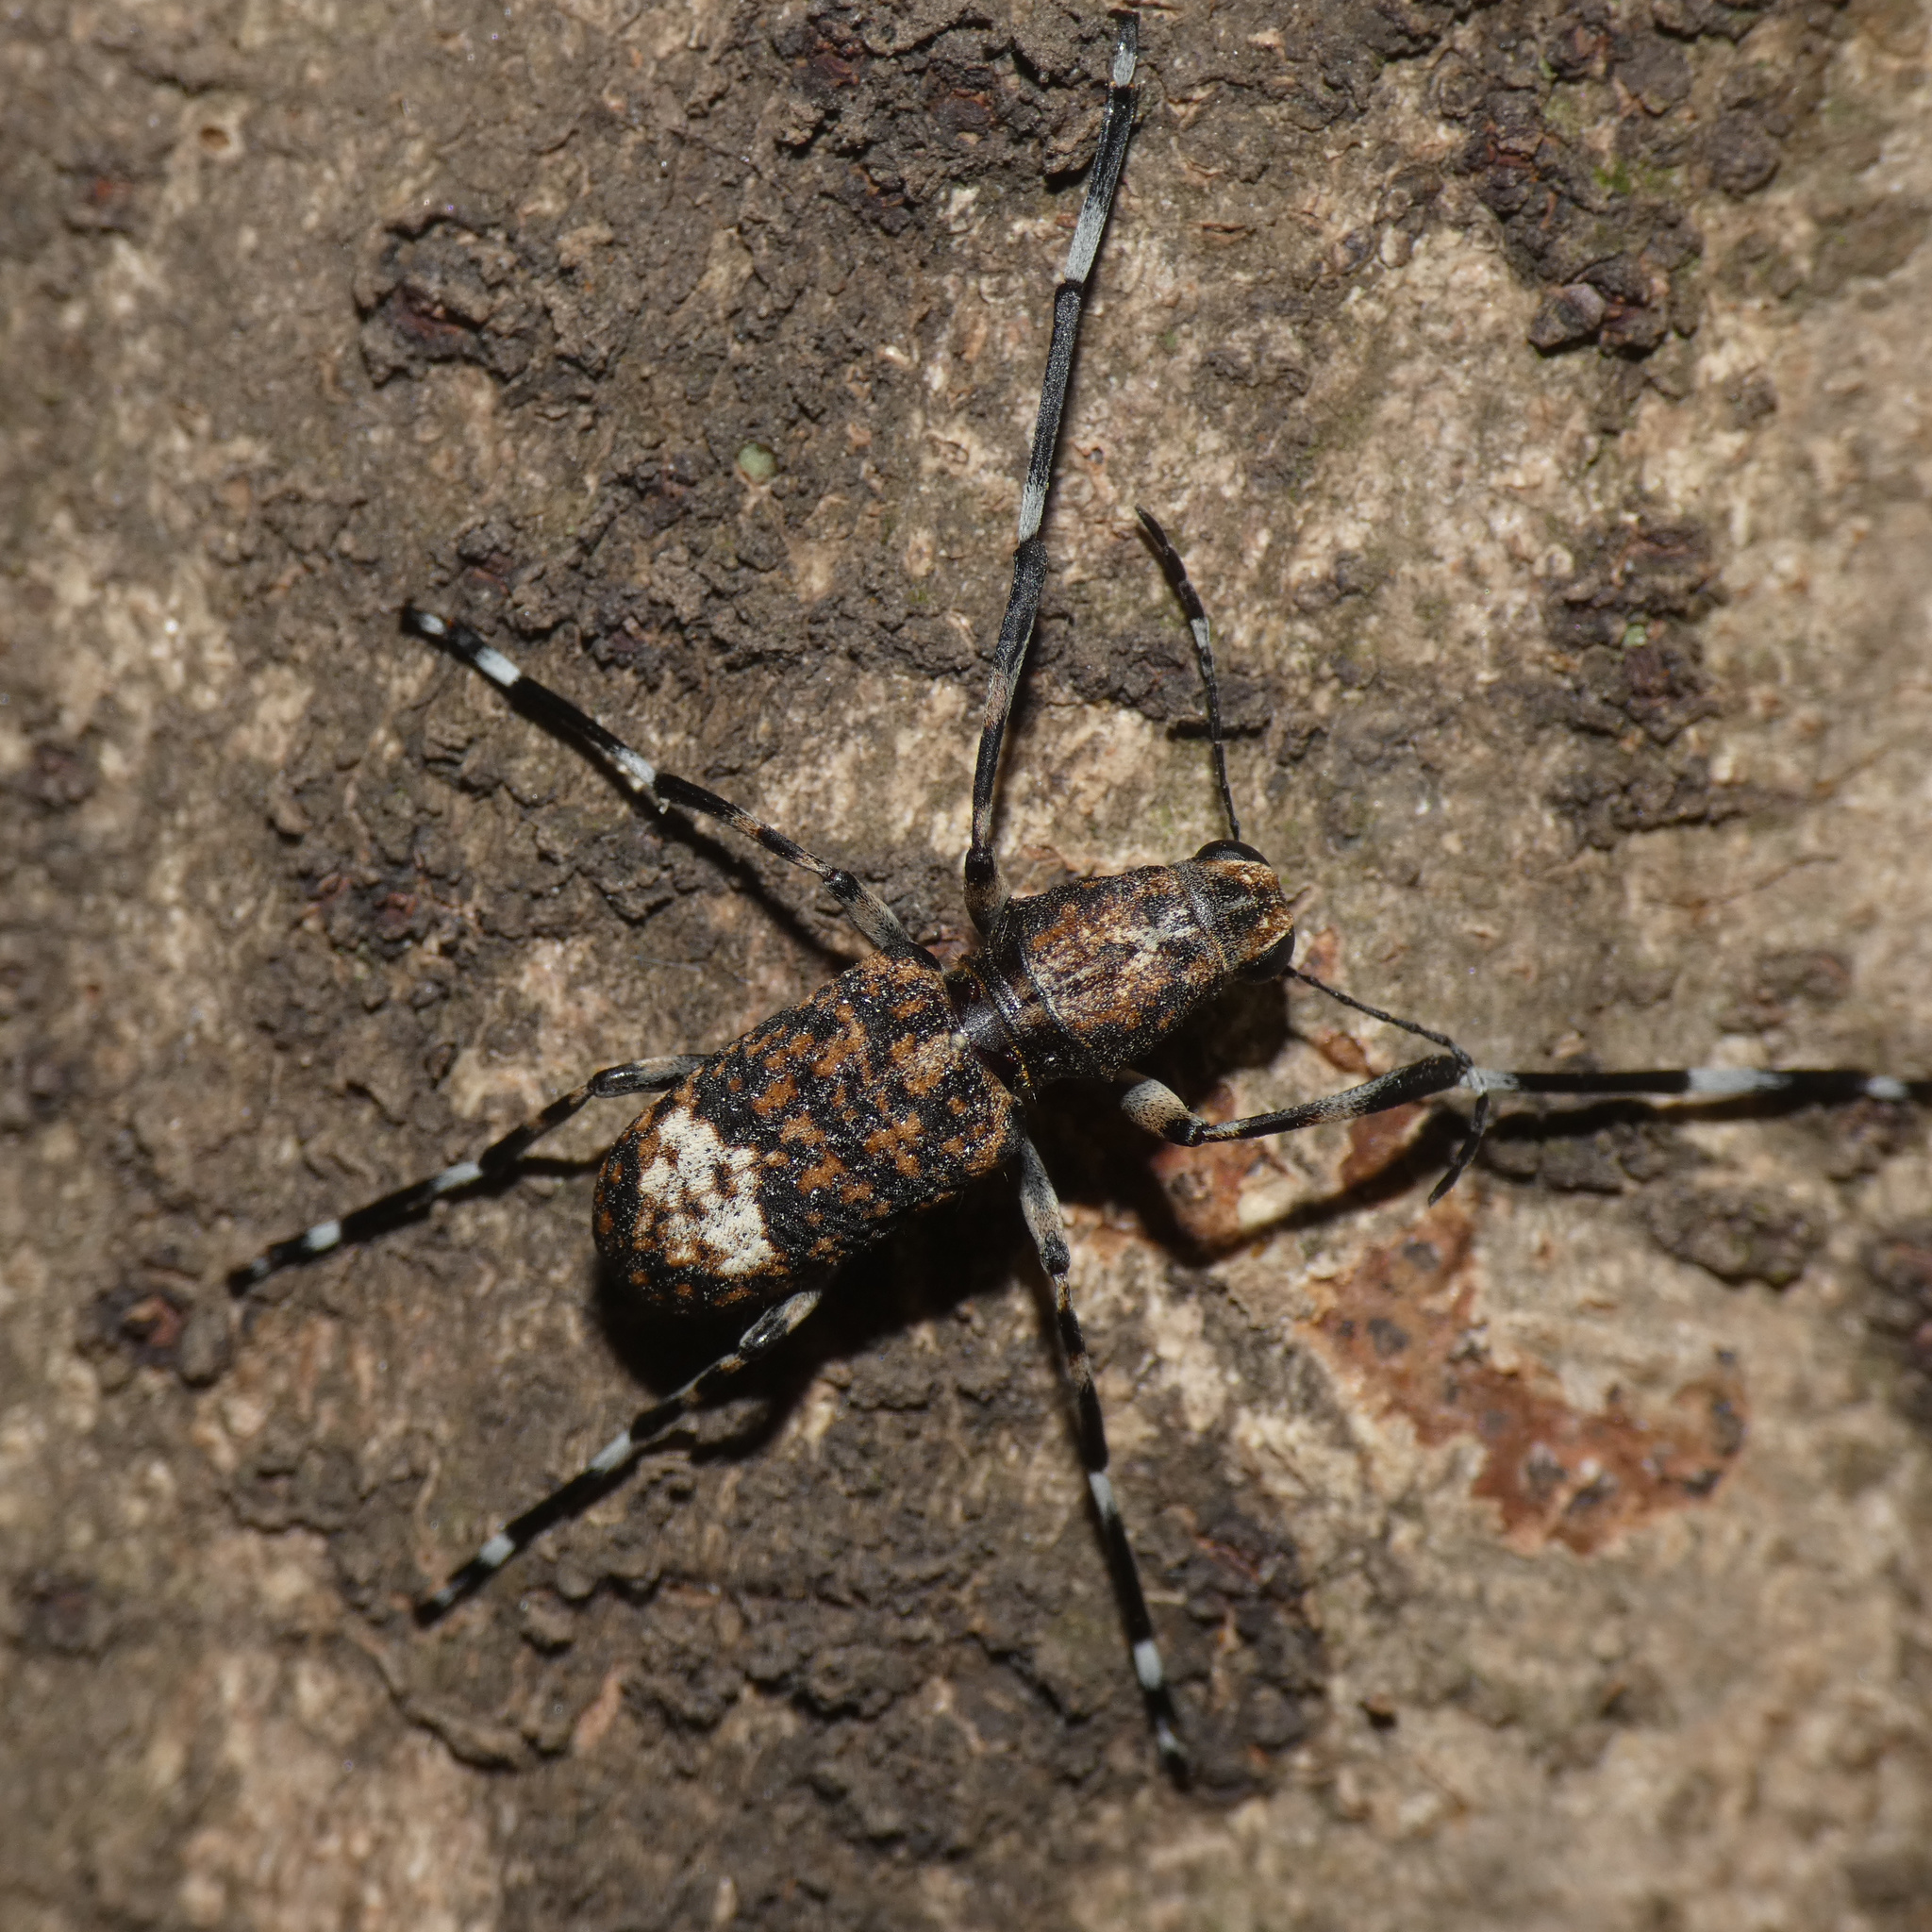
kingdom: Animalia
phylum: Arthropoda
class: Insecta
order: Coleoptera
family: Anthribidae
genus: Chirotenon
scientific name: Chirotenon longimanum
